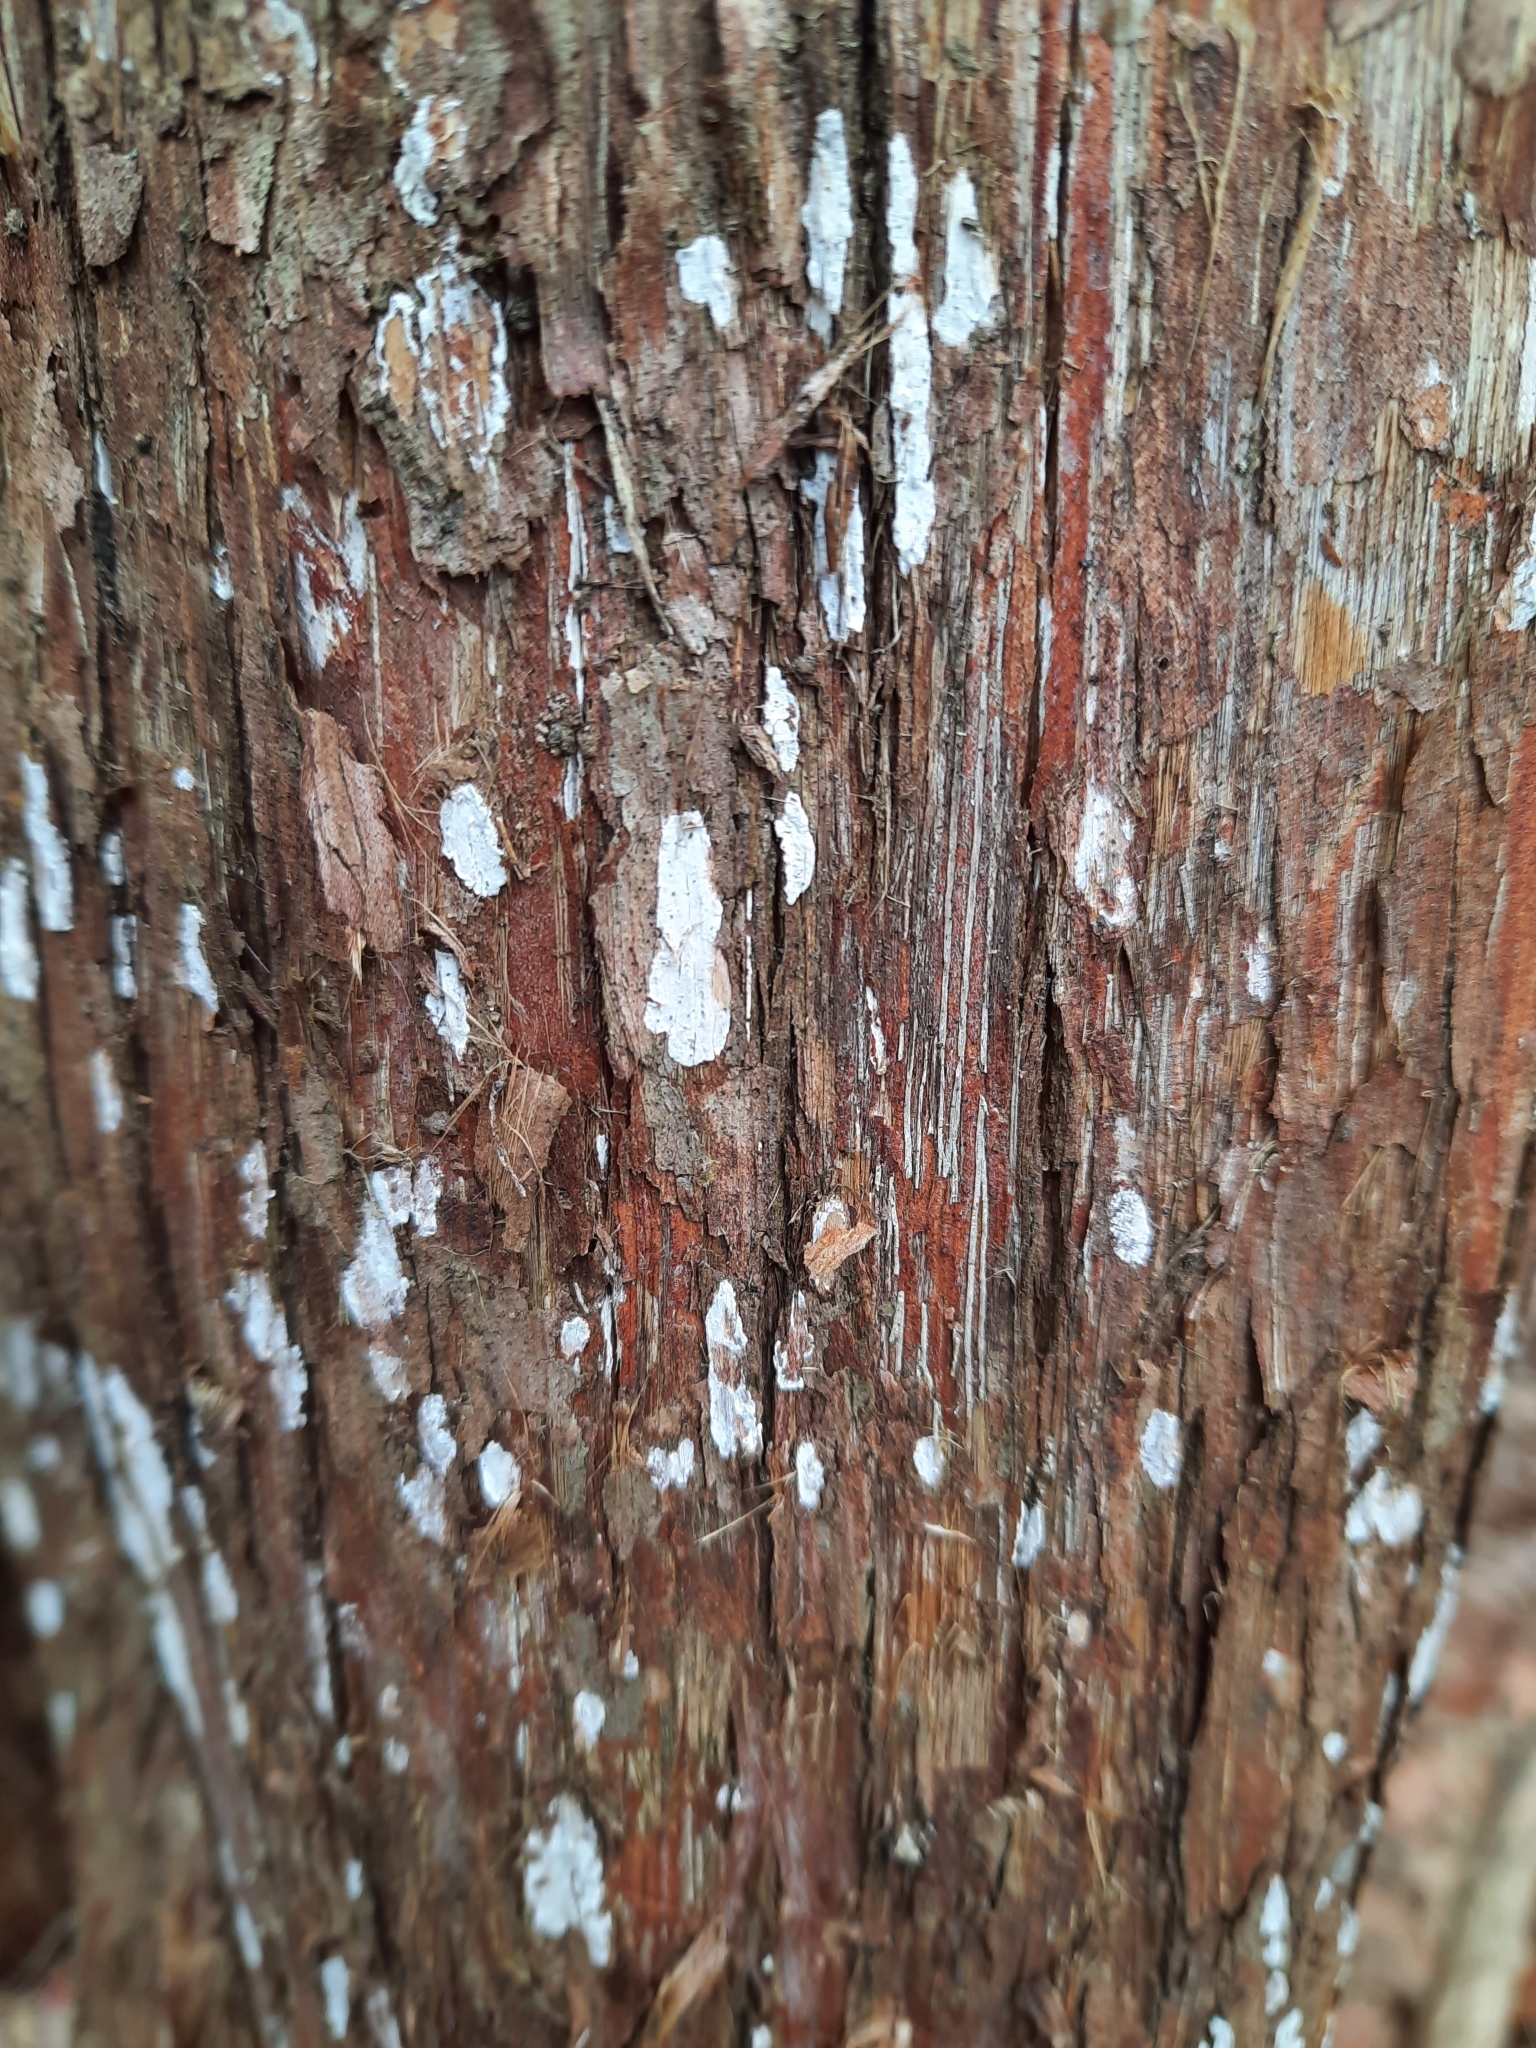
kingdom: Fungi
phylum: Basidiomycota
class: Agaricomycetes
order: Agaricales
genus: Dendrothele
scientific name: Dendrothele nivosa
